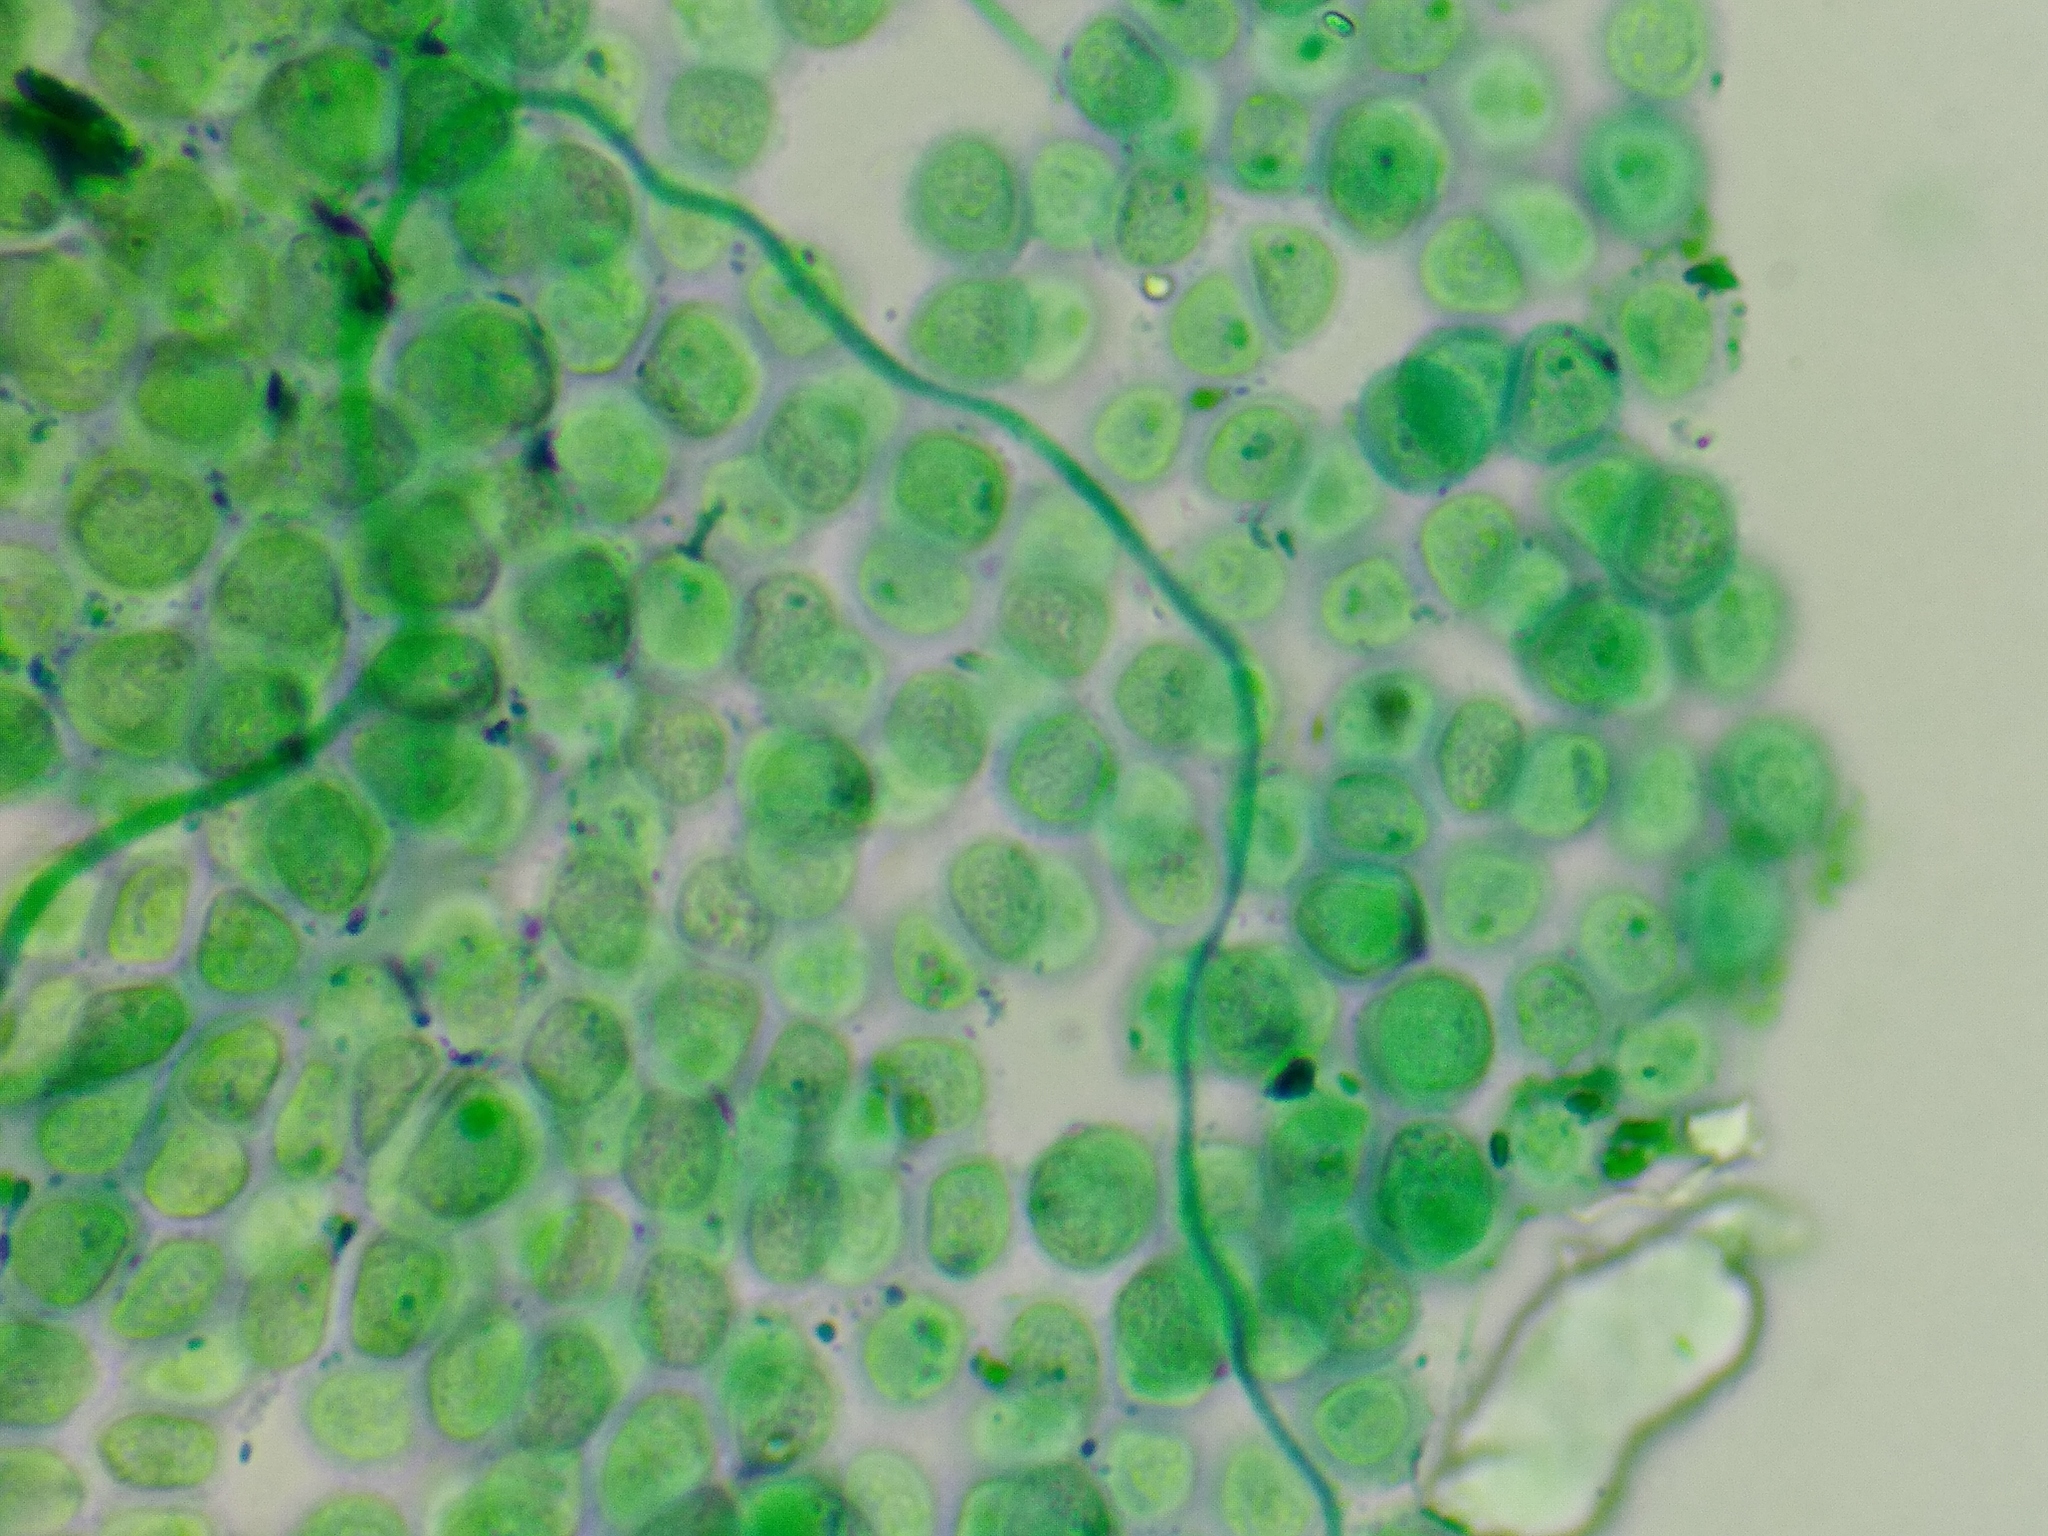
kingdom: Protozoa
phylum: Mycetozoa
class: Myxomycetes
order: Trichiales
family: Dianemataceae
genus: Calomyxa
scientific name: Calomyxa metallica
